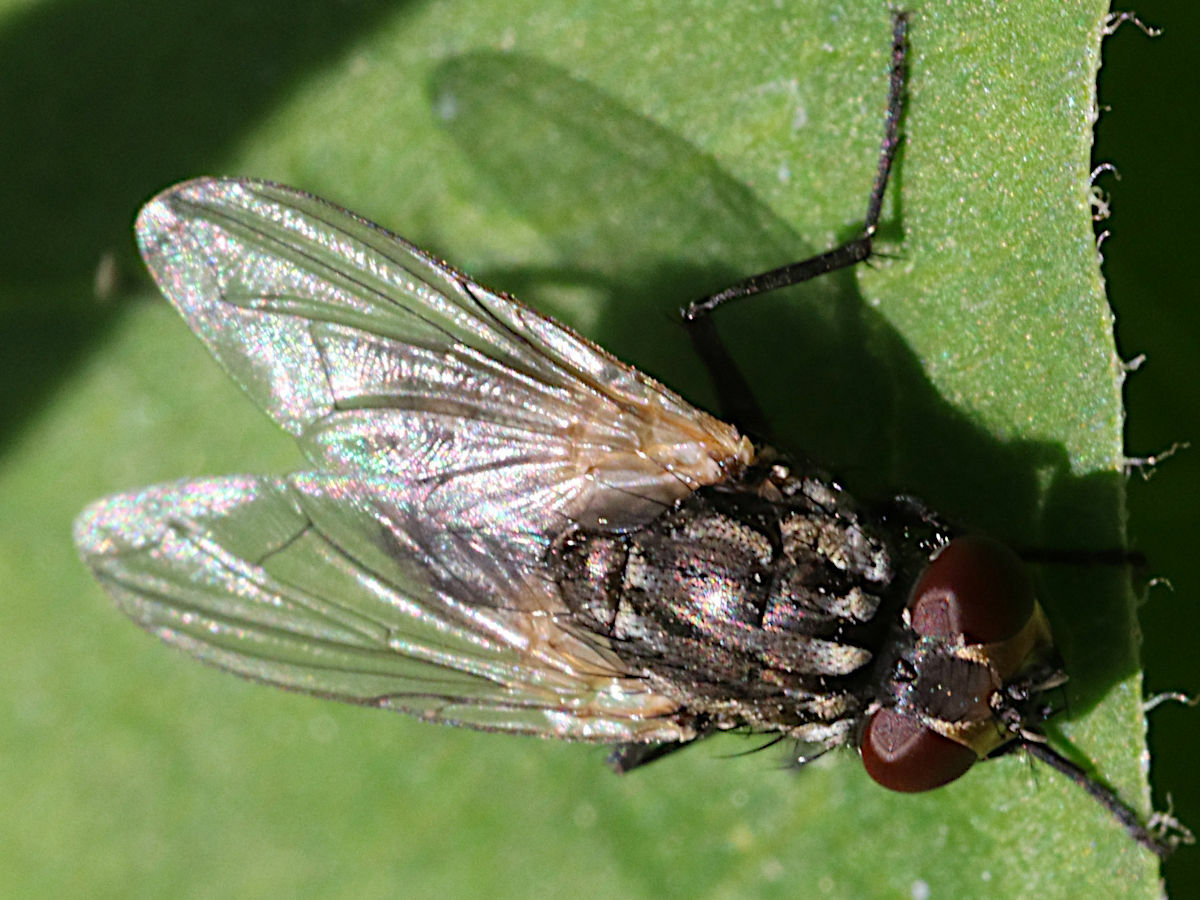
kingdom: Animalia
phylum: Arthropoda
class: Insecta
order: Diptera
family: Muscidae
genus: Musca
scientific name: Musca domestica
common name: House fly
